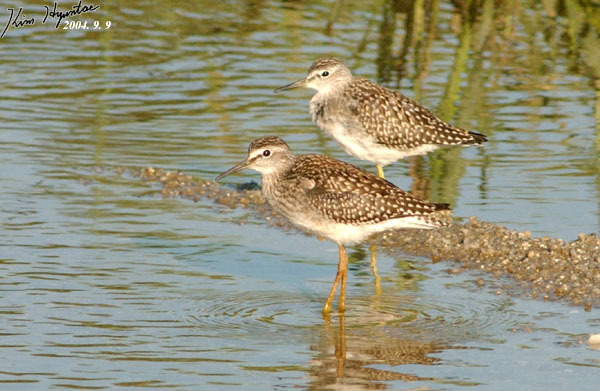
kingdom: Animalia
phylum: Chordata
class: Aves
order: Charadriiformes
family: Scolopacidae
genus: Tringa
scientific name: Tringa glareola
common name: Wood sandpiper
